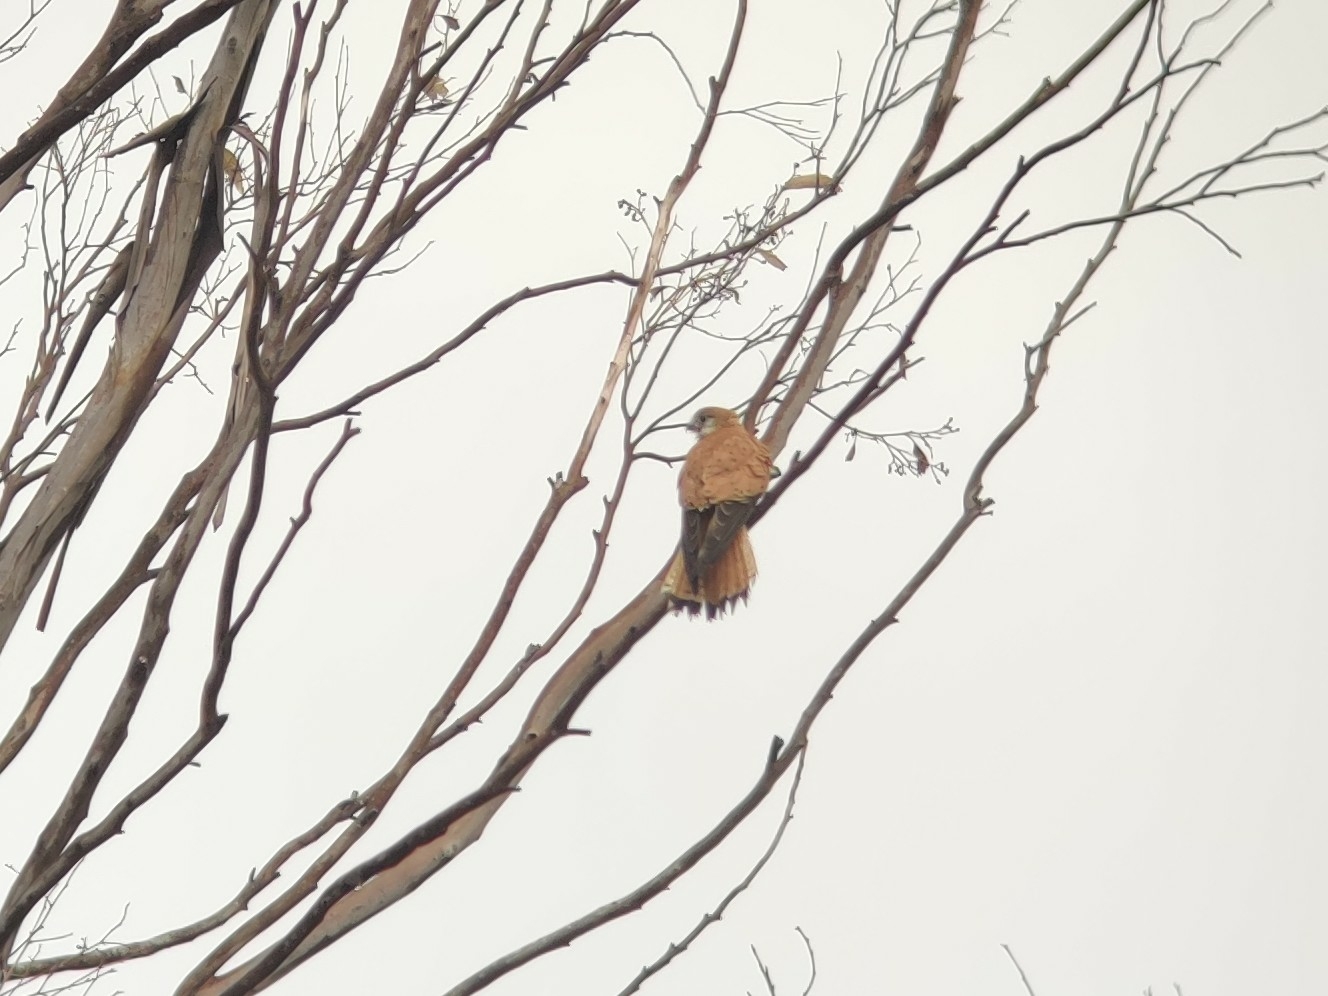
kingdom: Animalia
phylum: Chordata
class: Aves
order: Falconiformes
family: Falconidae
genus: Falco
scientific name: Falco cenchroides
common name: Nankeen kestrel
